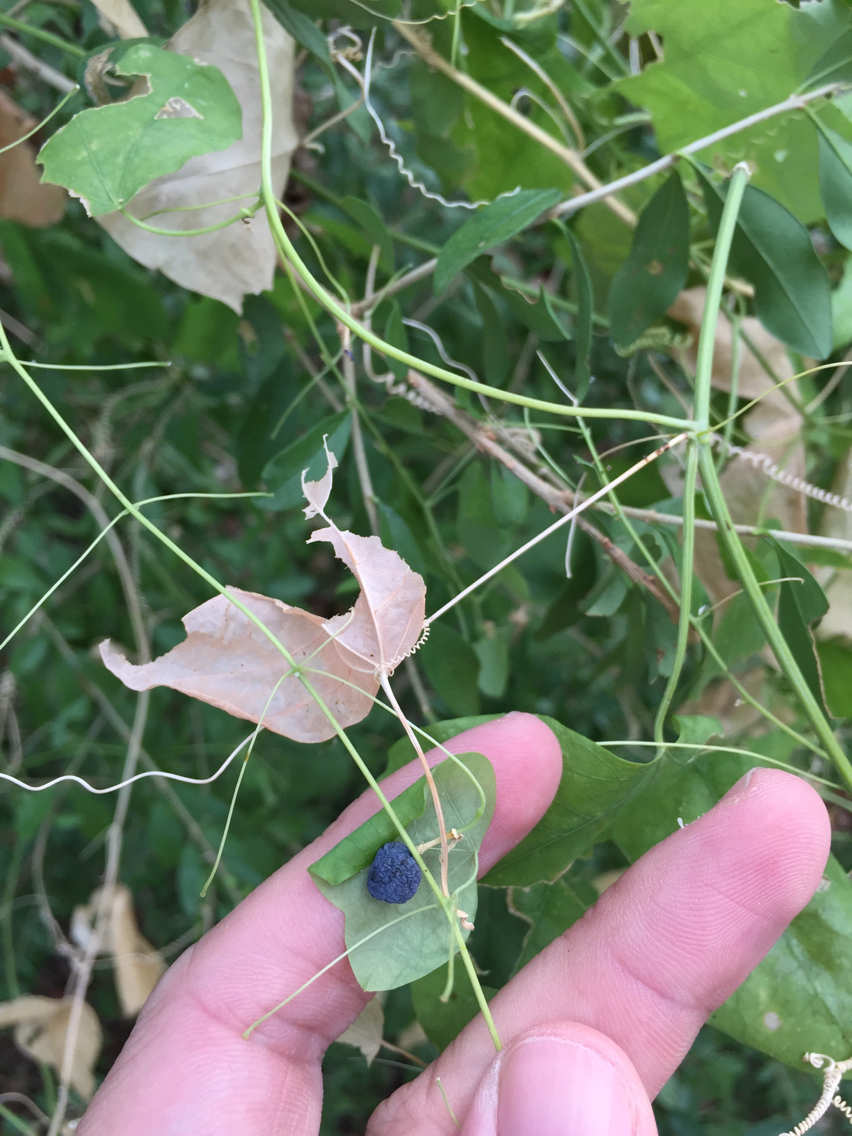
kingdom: Plantae
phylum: Tracheophyta
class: Magnoliopsida
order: Malpighiales
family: Passifloraceae
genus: Passiflora
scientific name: Passiflora lutea
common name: Yellow passionflower
